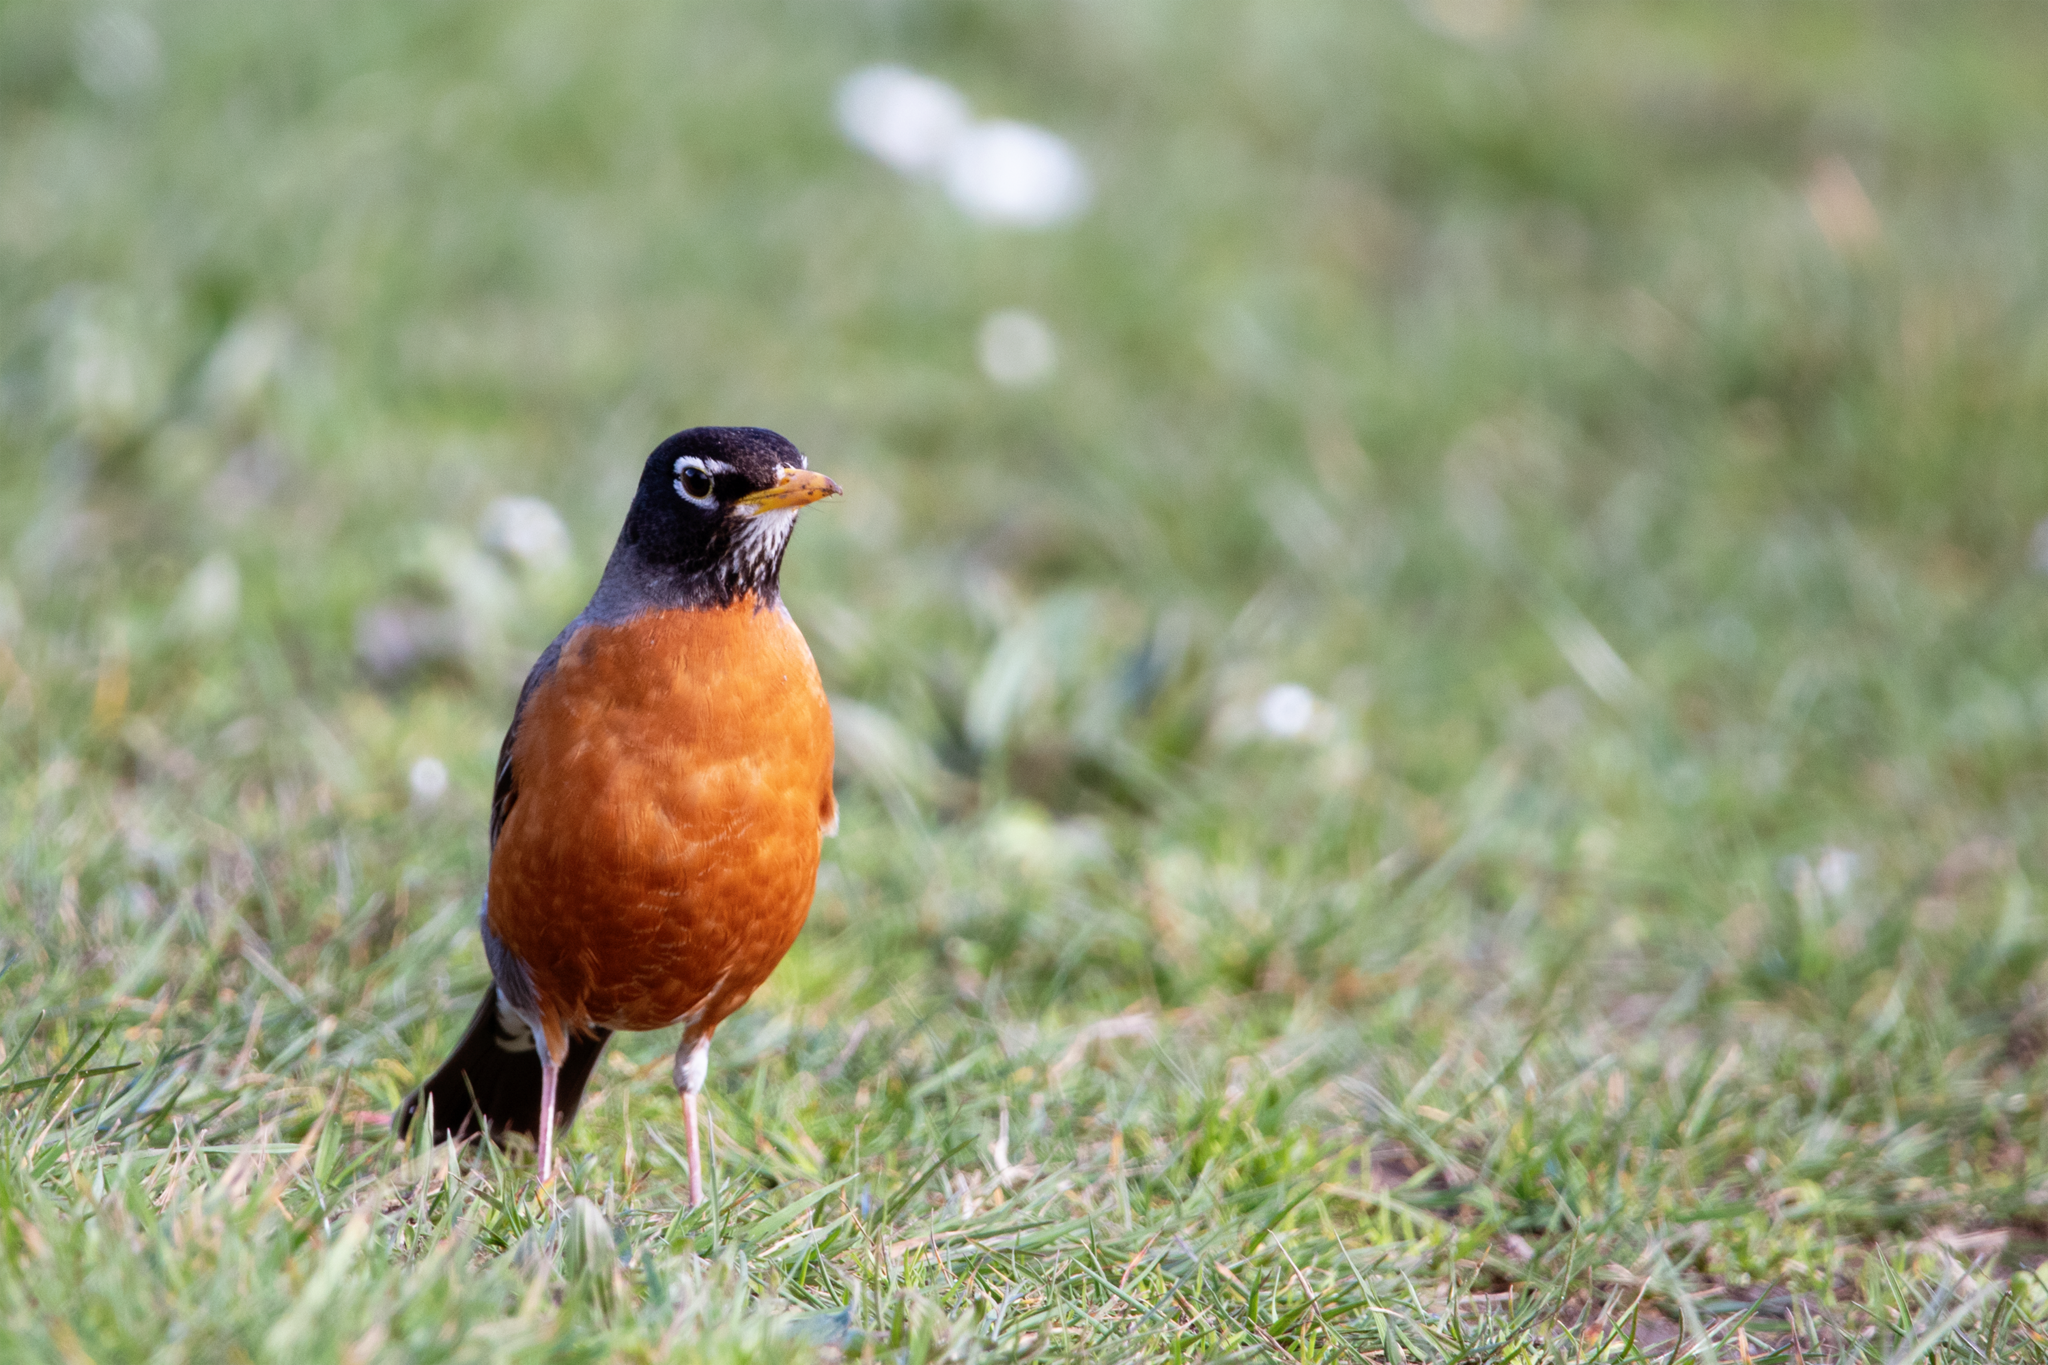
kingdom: Animalia
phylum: Chordata
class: Aves
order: Passeriformes
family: Turdidae
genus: Turdus
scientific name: Turdus migratorius
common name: American robin
